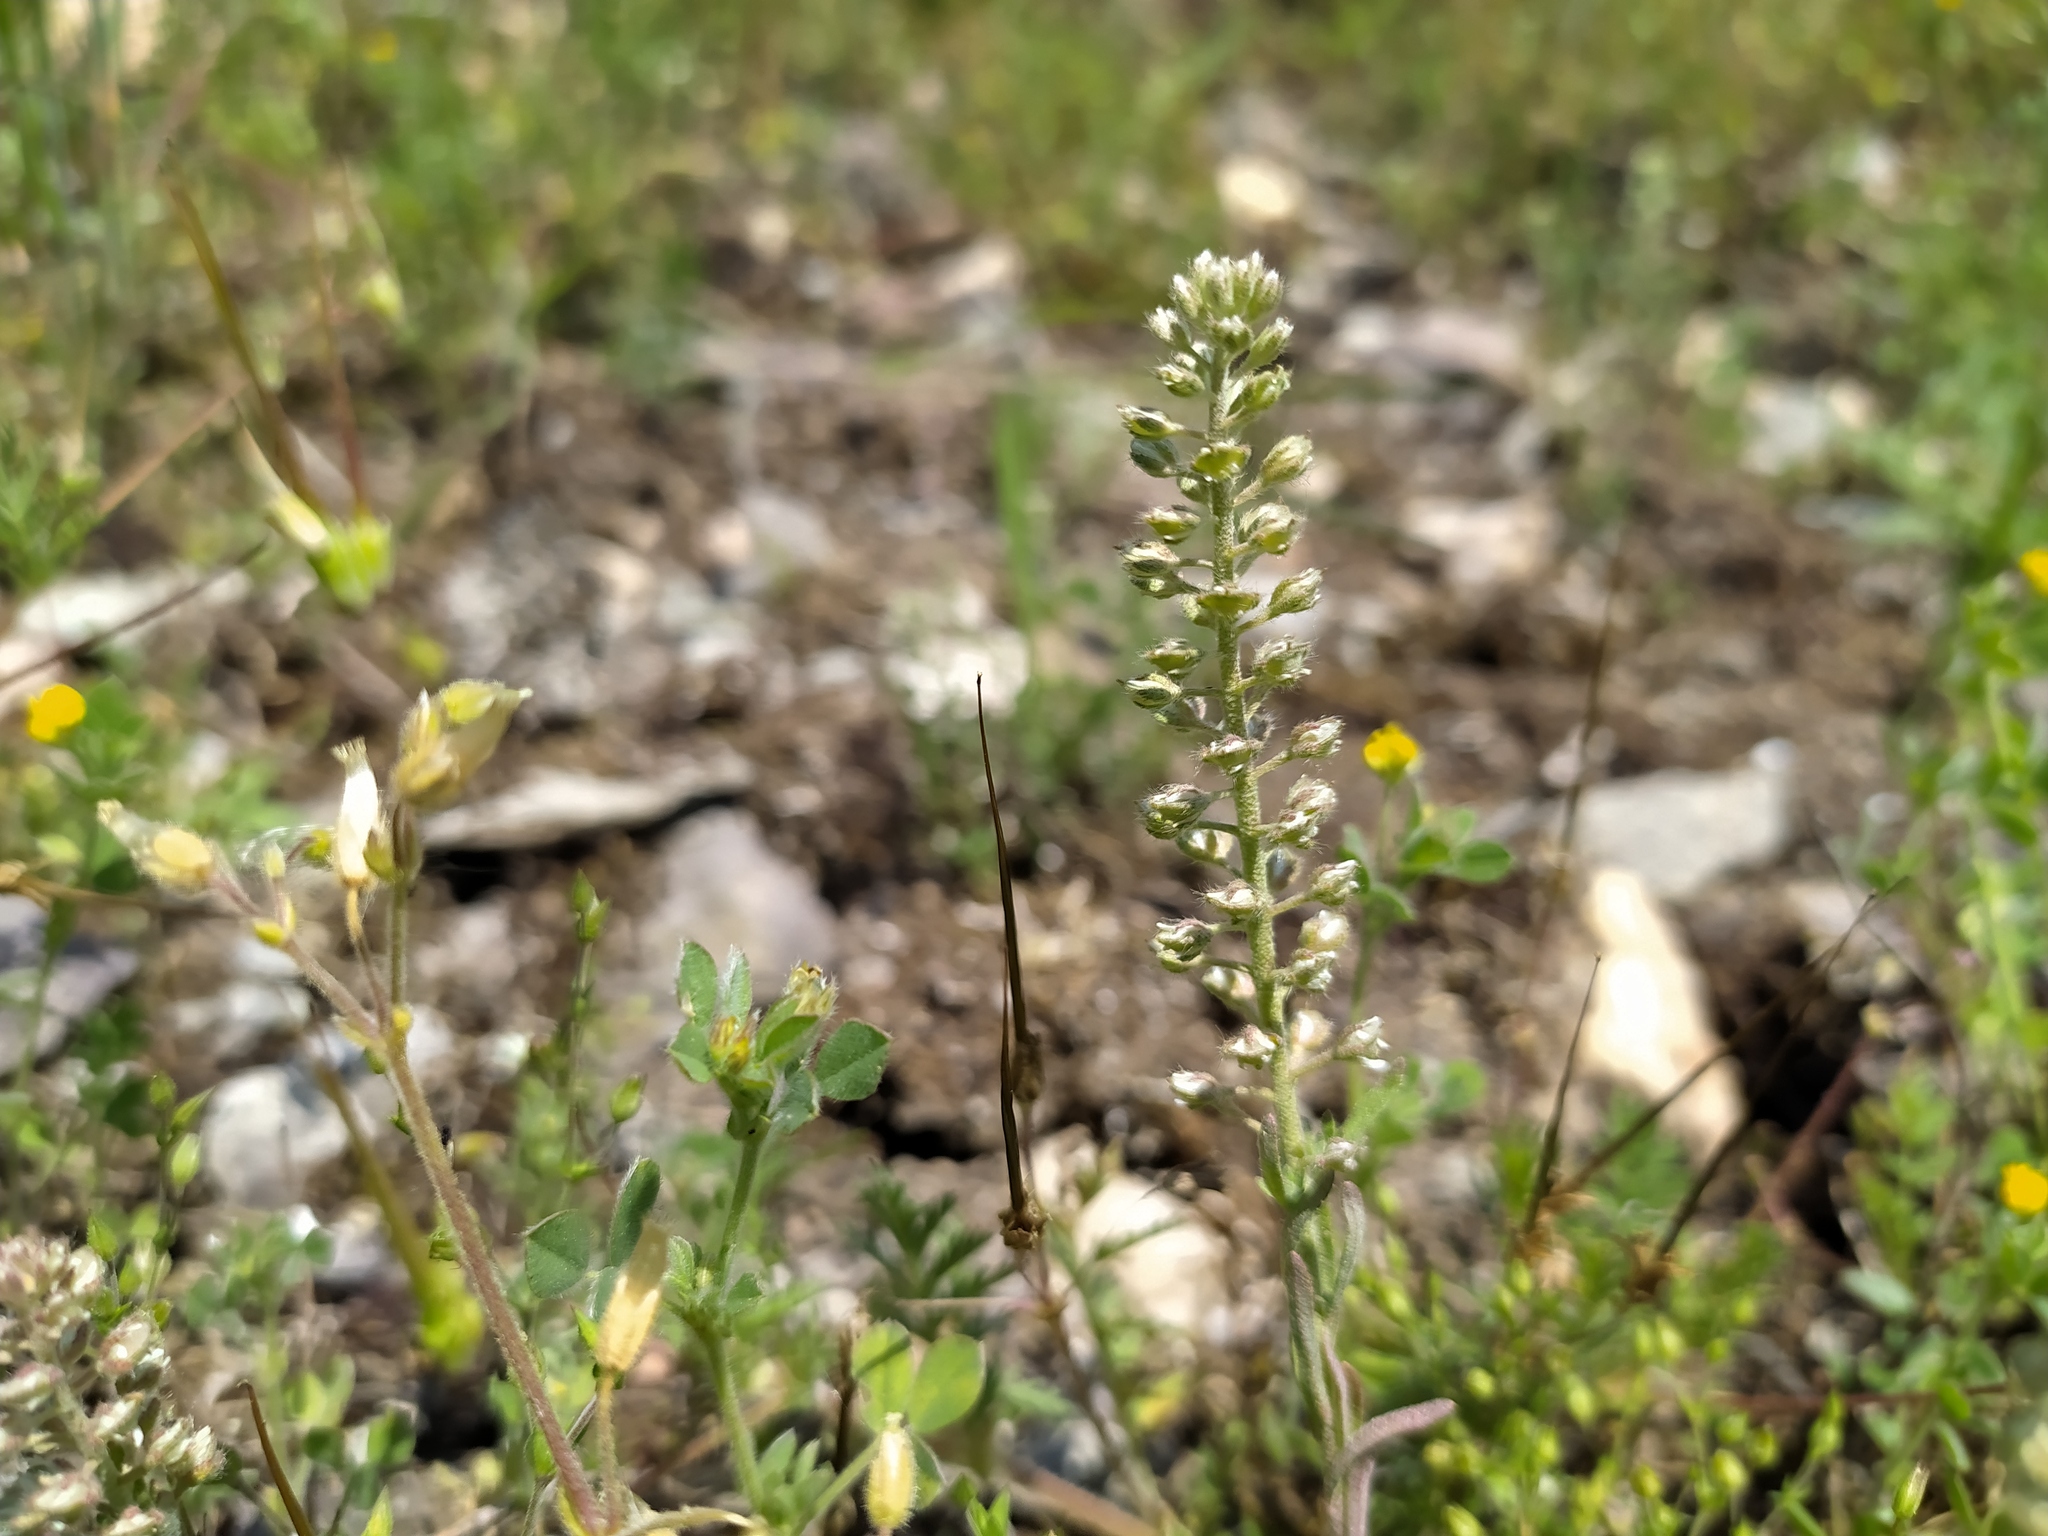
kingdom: Plantae
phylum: Tracheophyta
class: Magnoliopsida
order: Brassicales
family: Brassicaceae
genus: Alyssum
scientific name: Alyssum alyssoides
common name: Small alison
